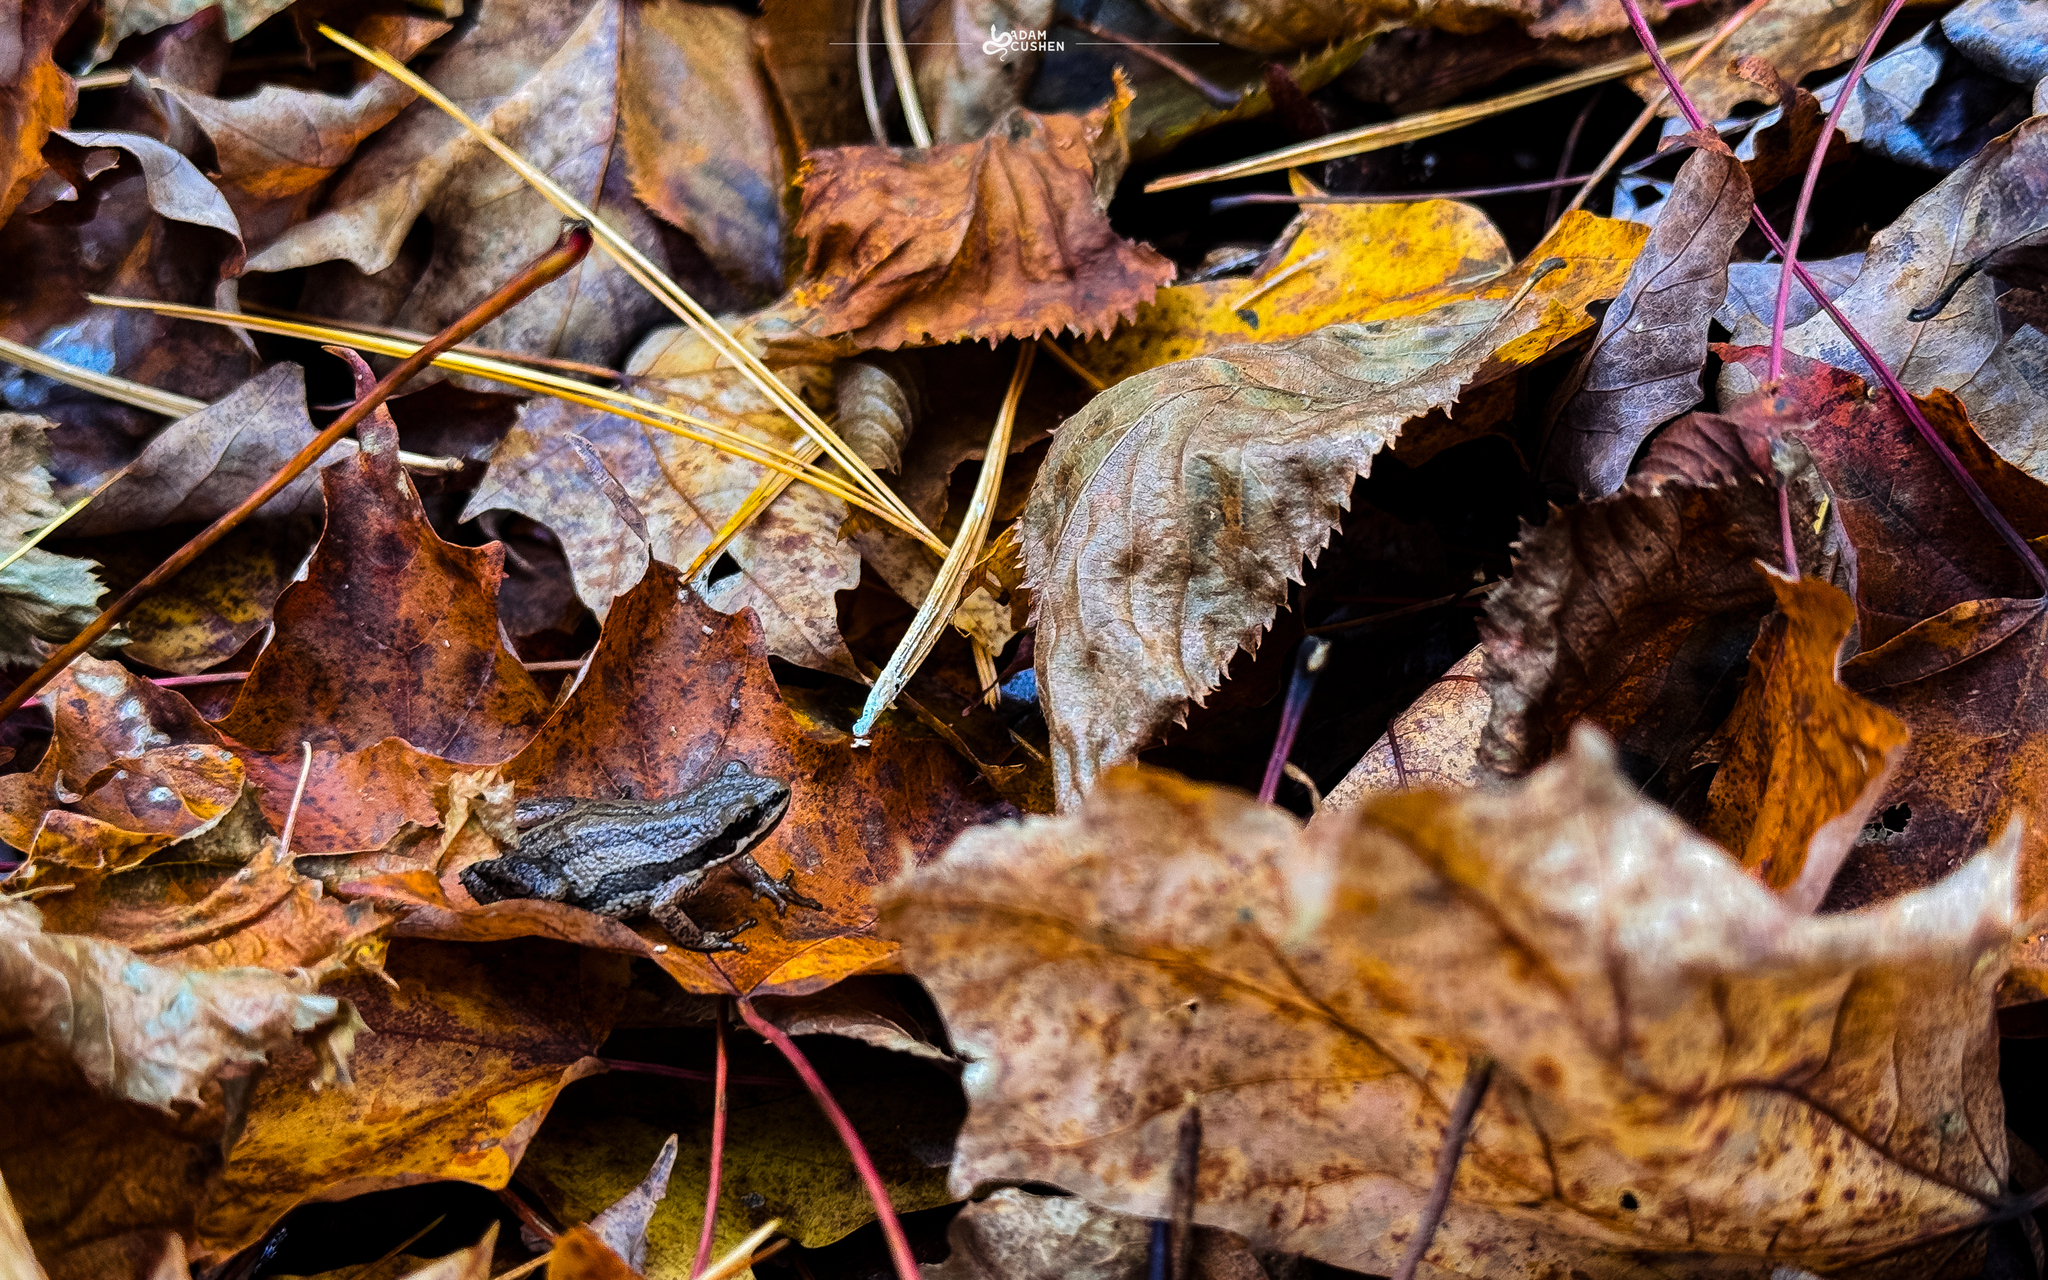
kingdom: Animalia
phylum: Chordata
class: Amphibia
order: Anura
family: Hylidae
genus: Pseudacris
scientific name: Pseudacris maculata
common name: Boreal chorus frog
